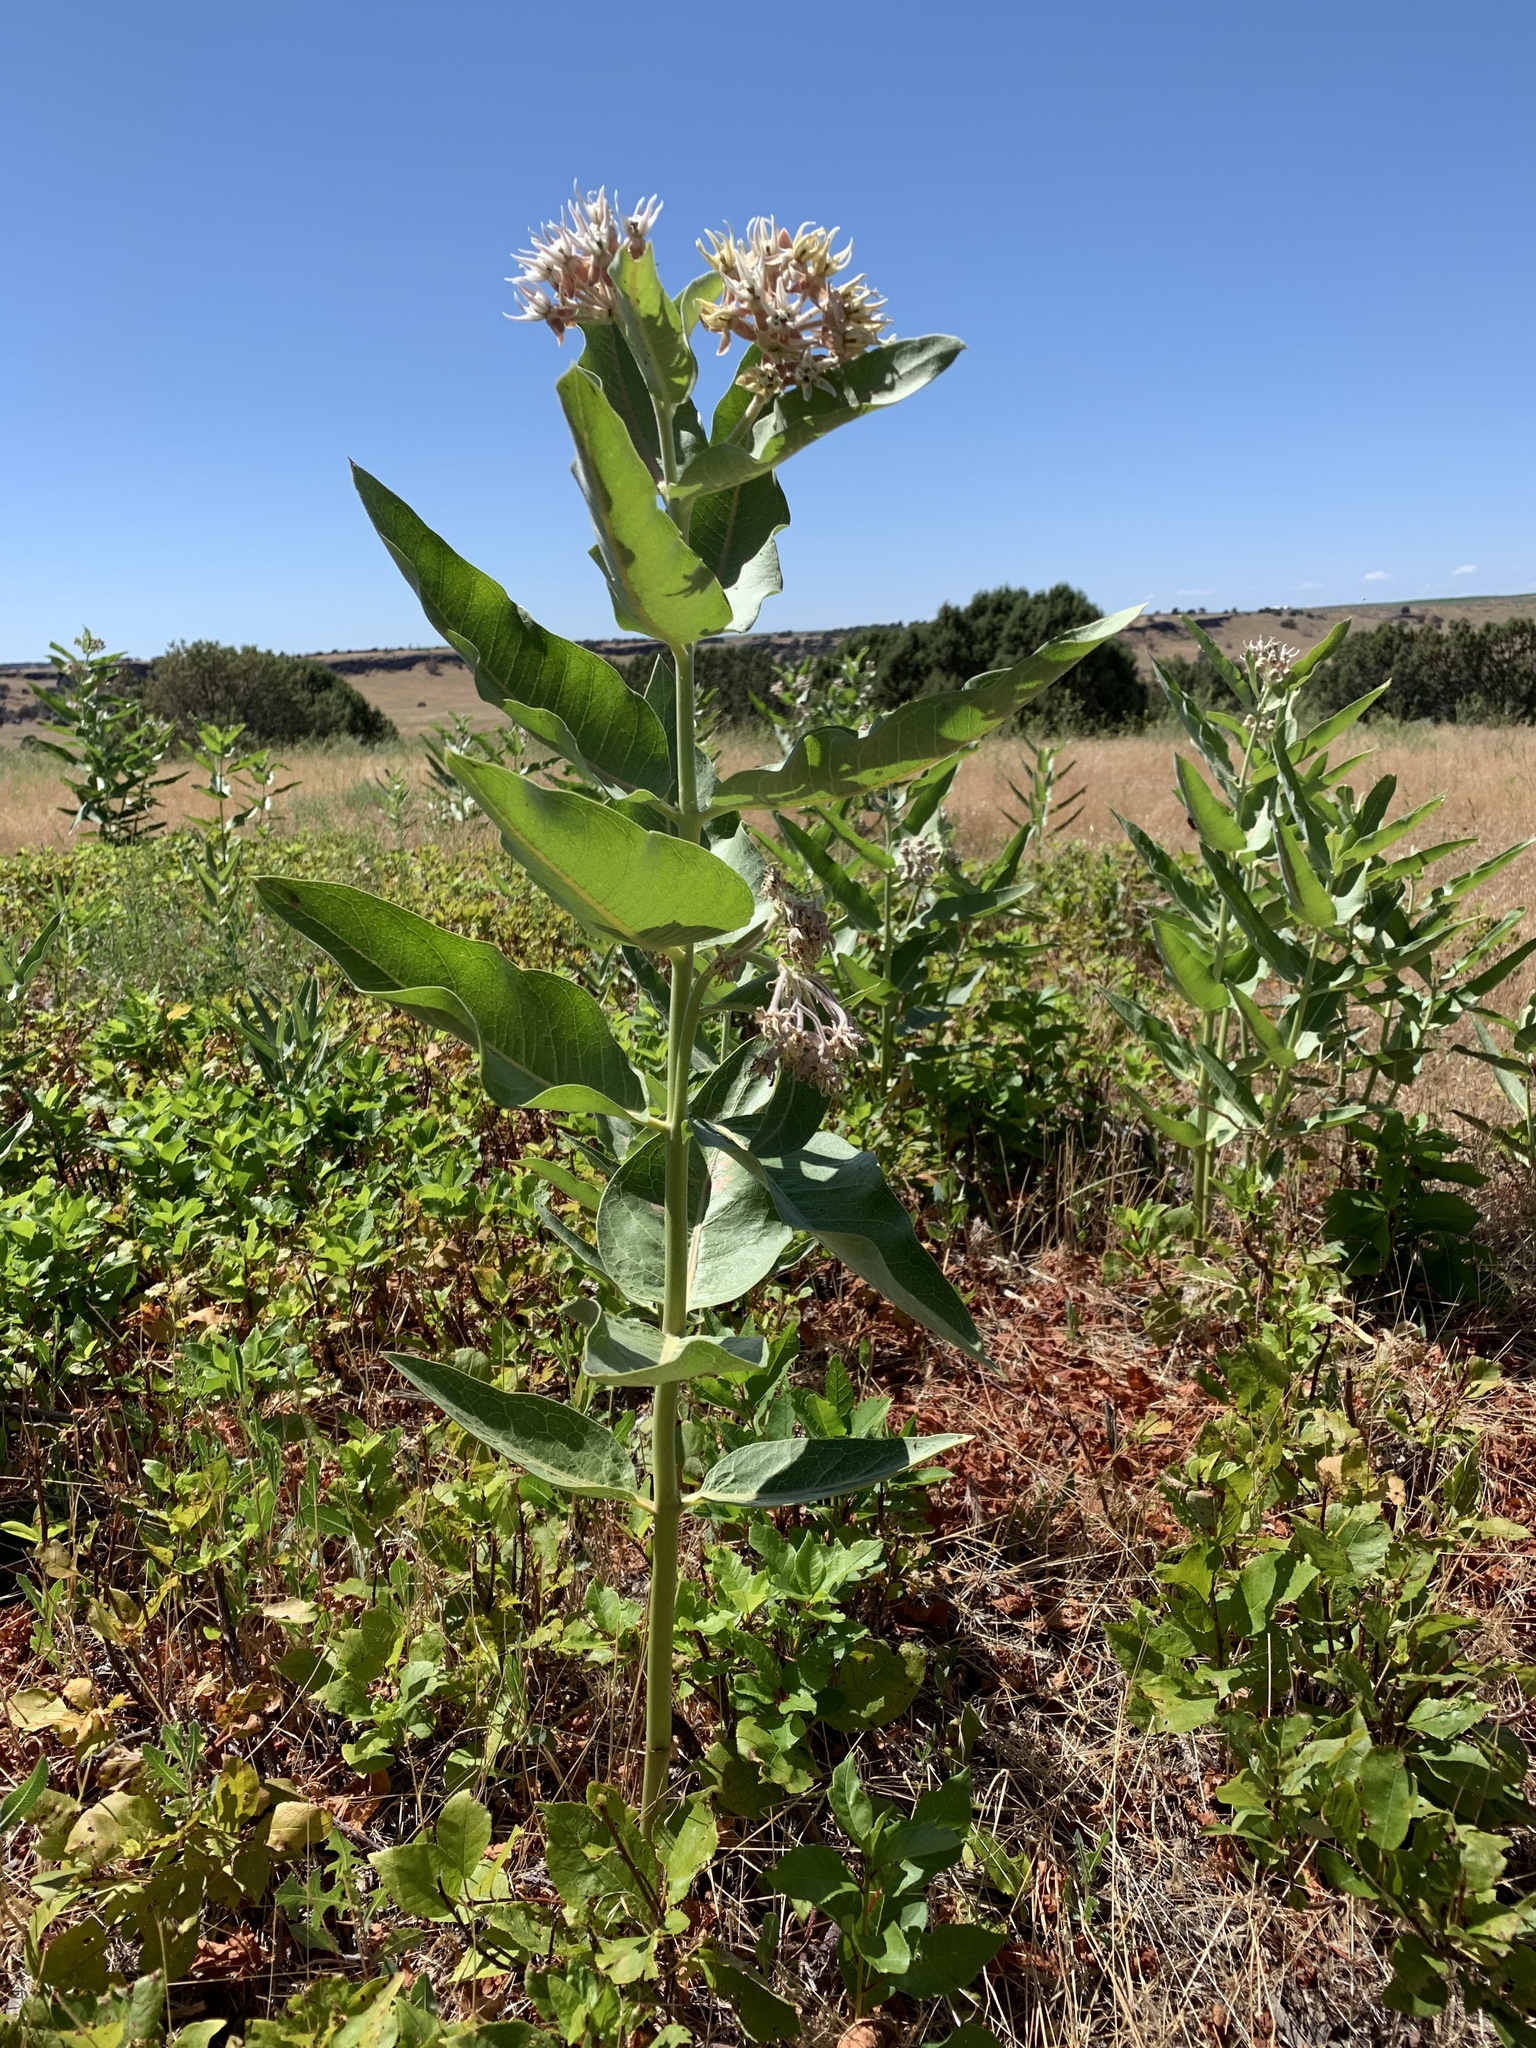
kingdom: Plantae
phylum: Tracheophyta
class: Magnoliopsida
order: Gentianales
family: Apocynaceae
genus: Asclepias
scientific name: Asclepias speciosa
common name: Showy milkweed
